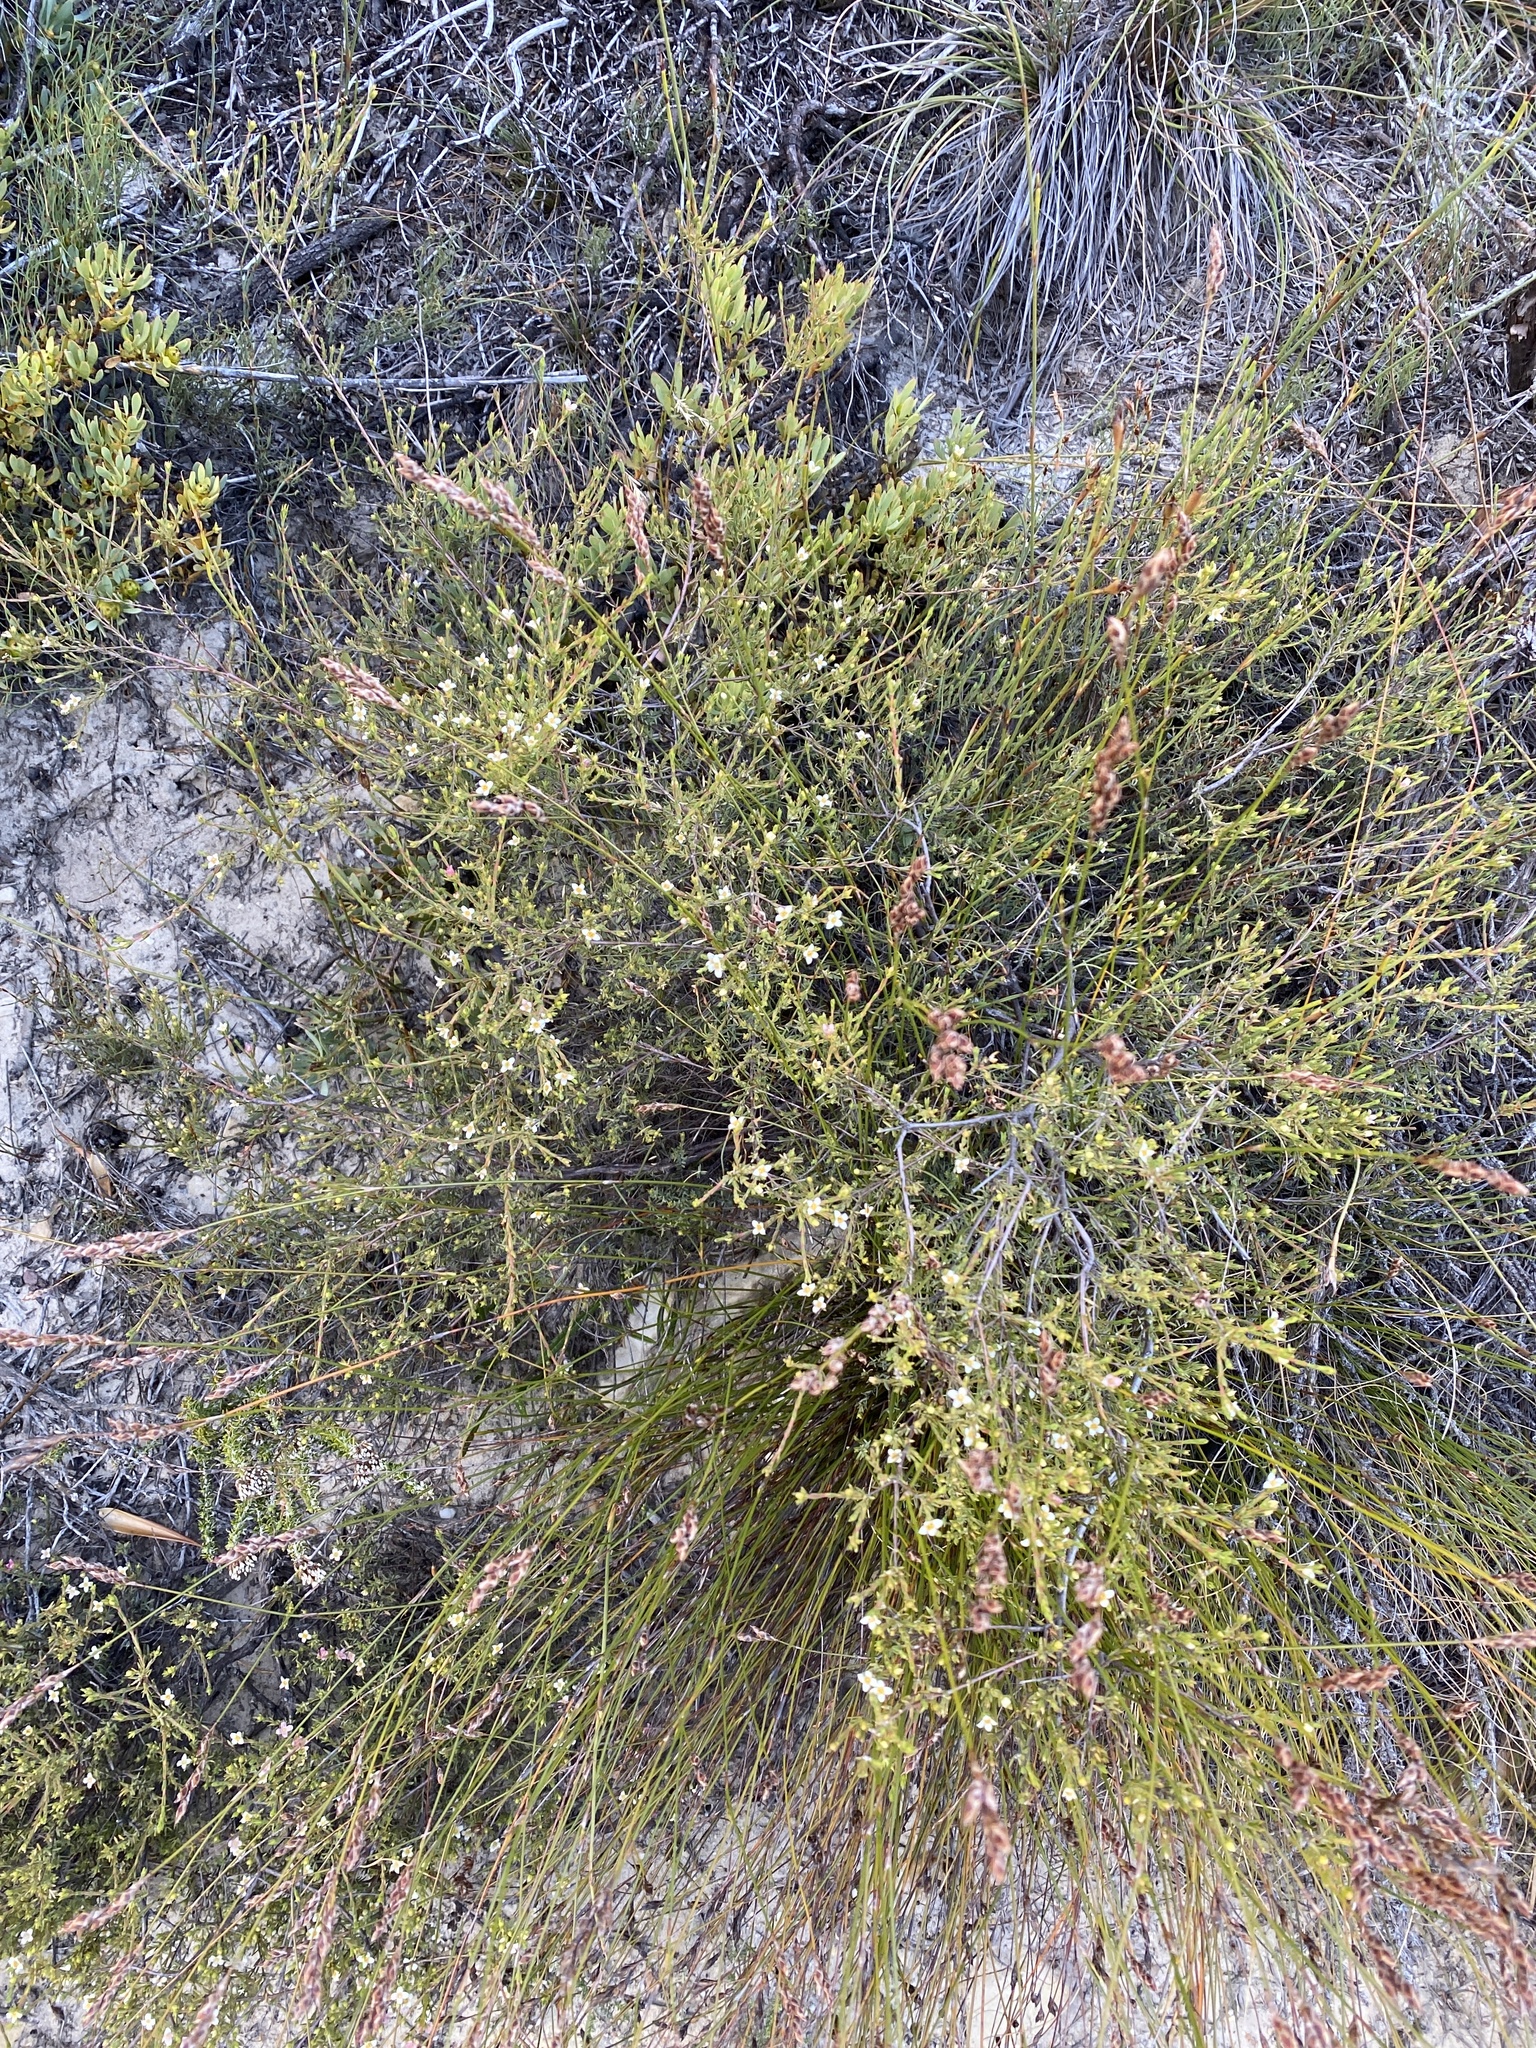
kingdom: Plantae
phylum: Tracheophyta
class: Magnoliopsida
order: Malvales
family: Thymelaeaceae
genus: Lachnaea
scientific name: Lachnaea gracilis
